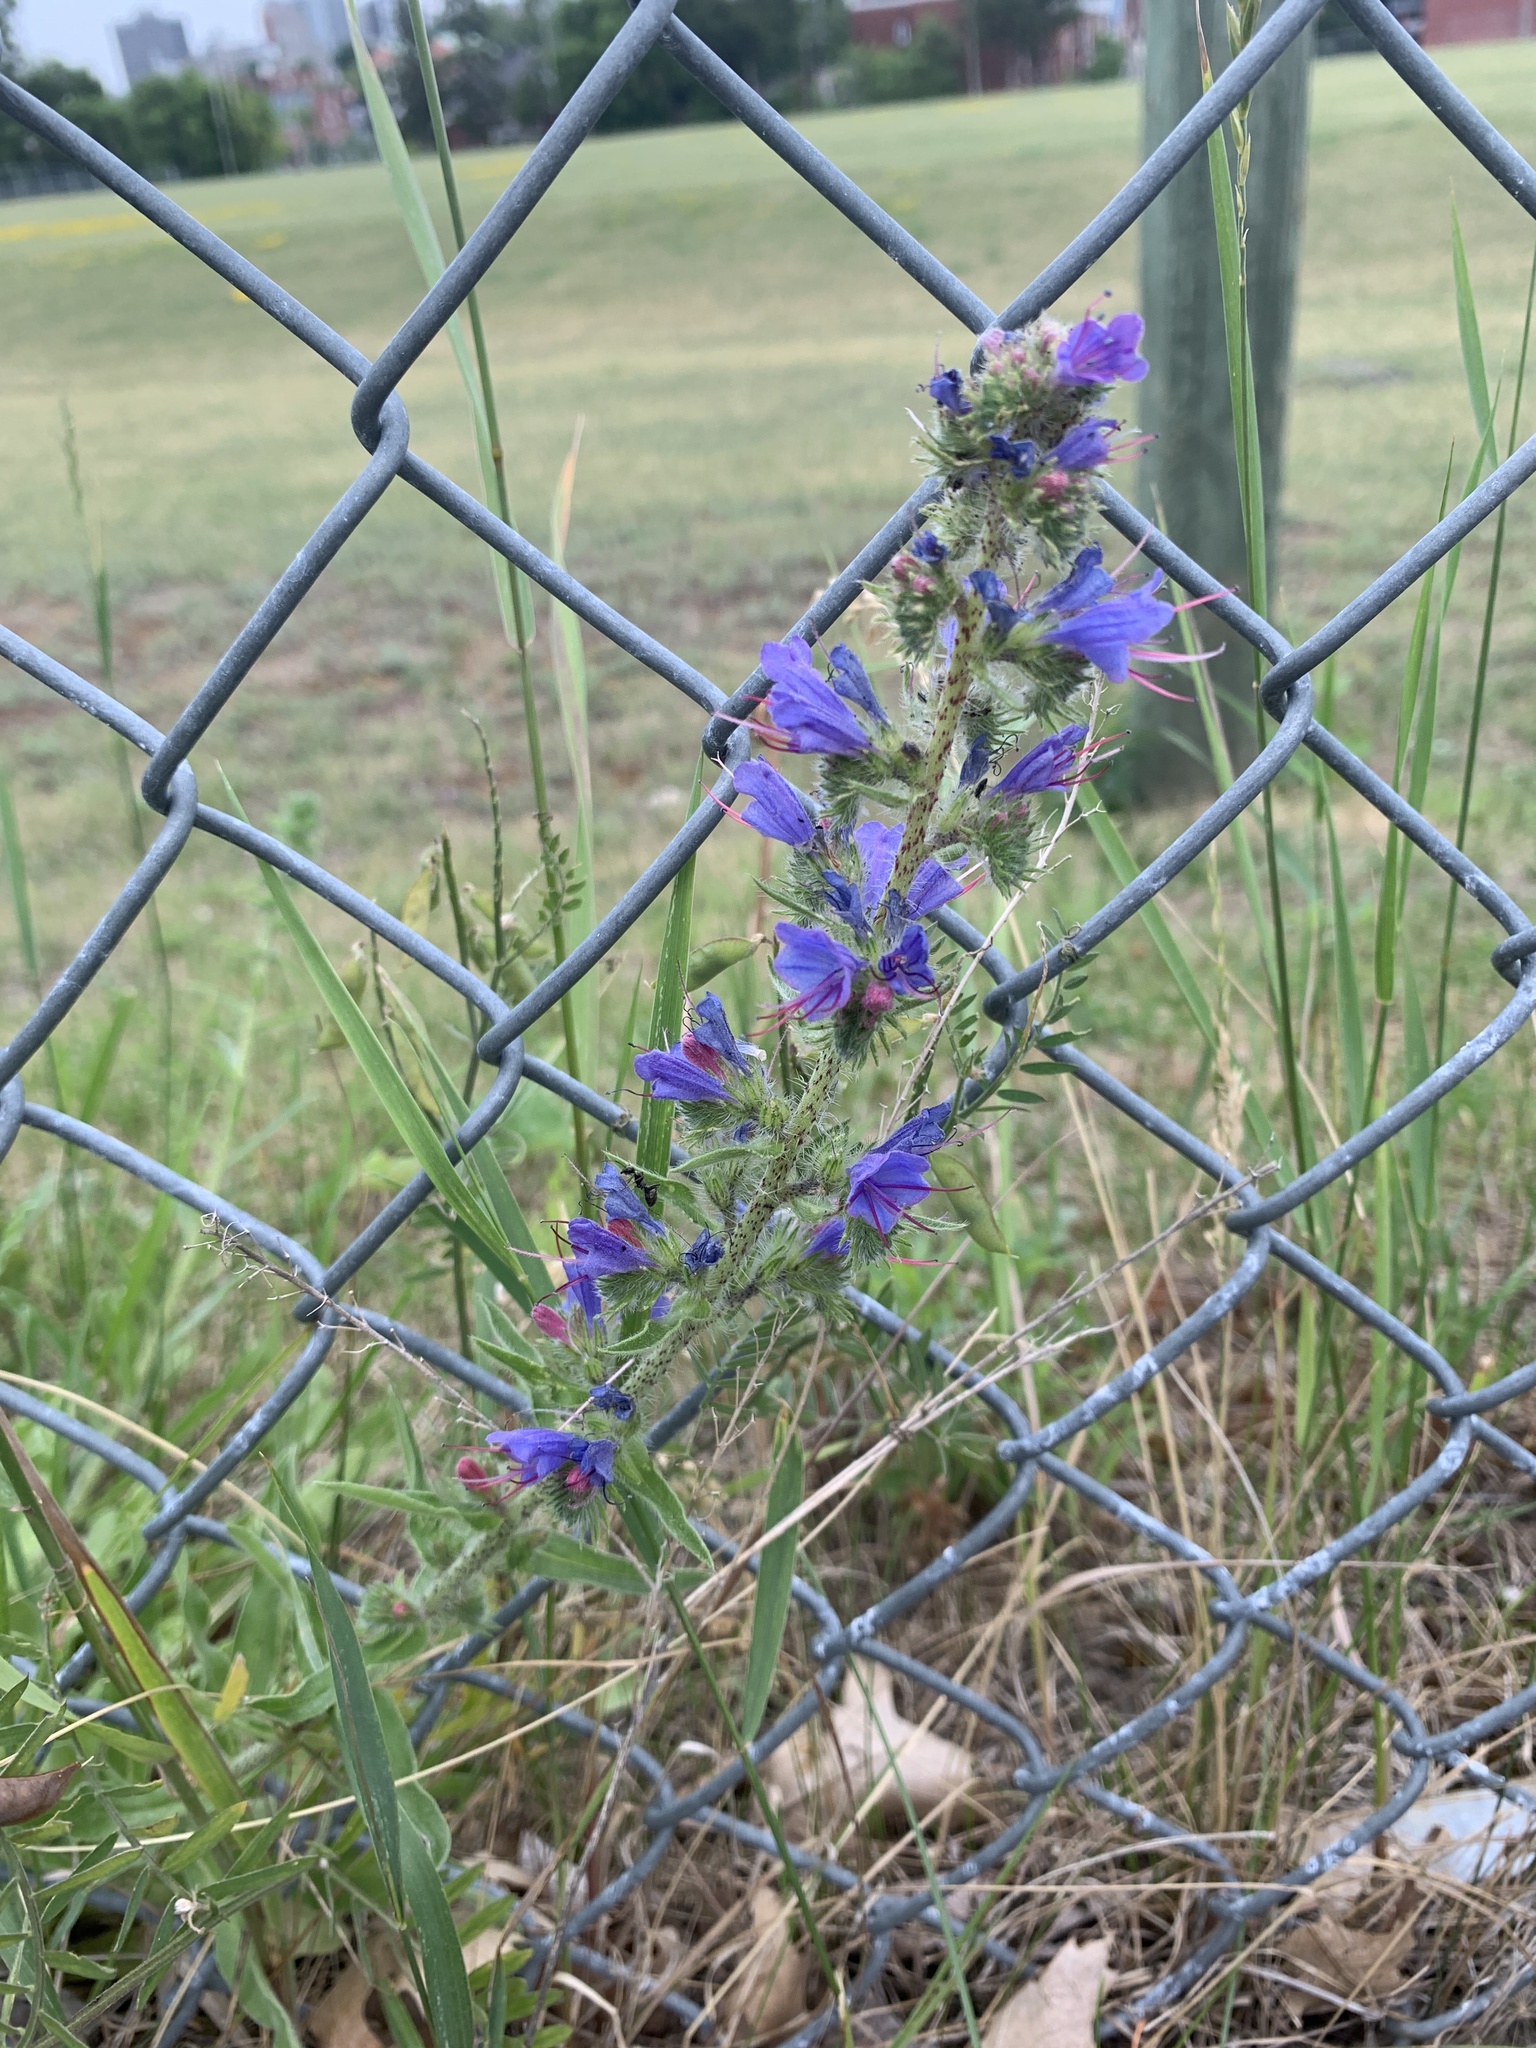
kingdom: Plantae
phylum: Tracheophyta
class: Magnoliopsida
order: Boraginales
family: Boraginaceae
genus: Echium
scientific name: Echium vulgare
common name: Common viper's bugloss
